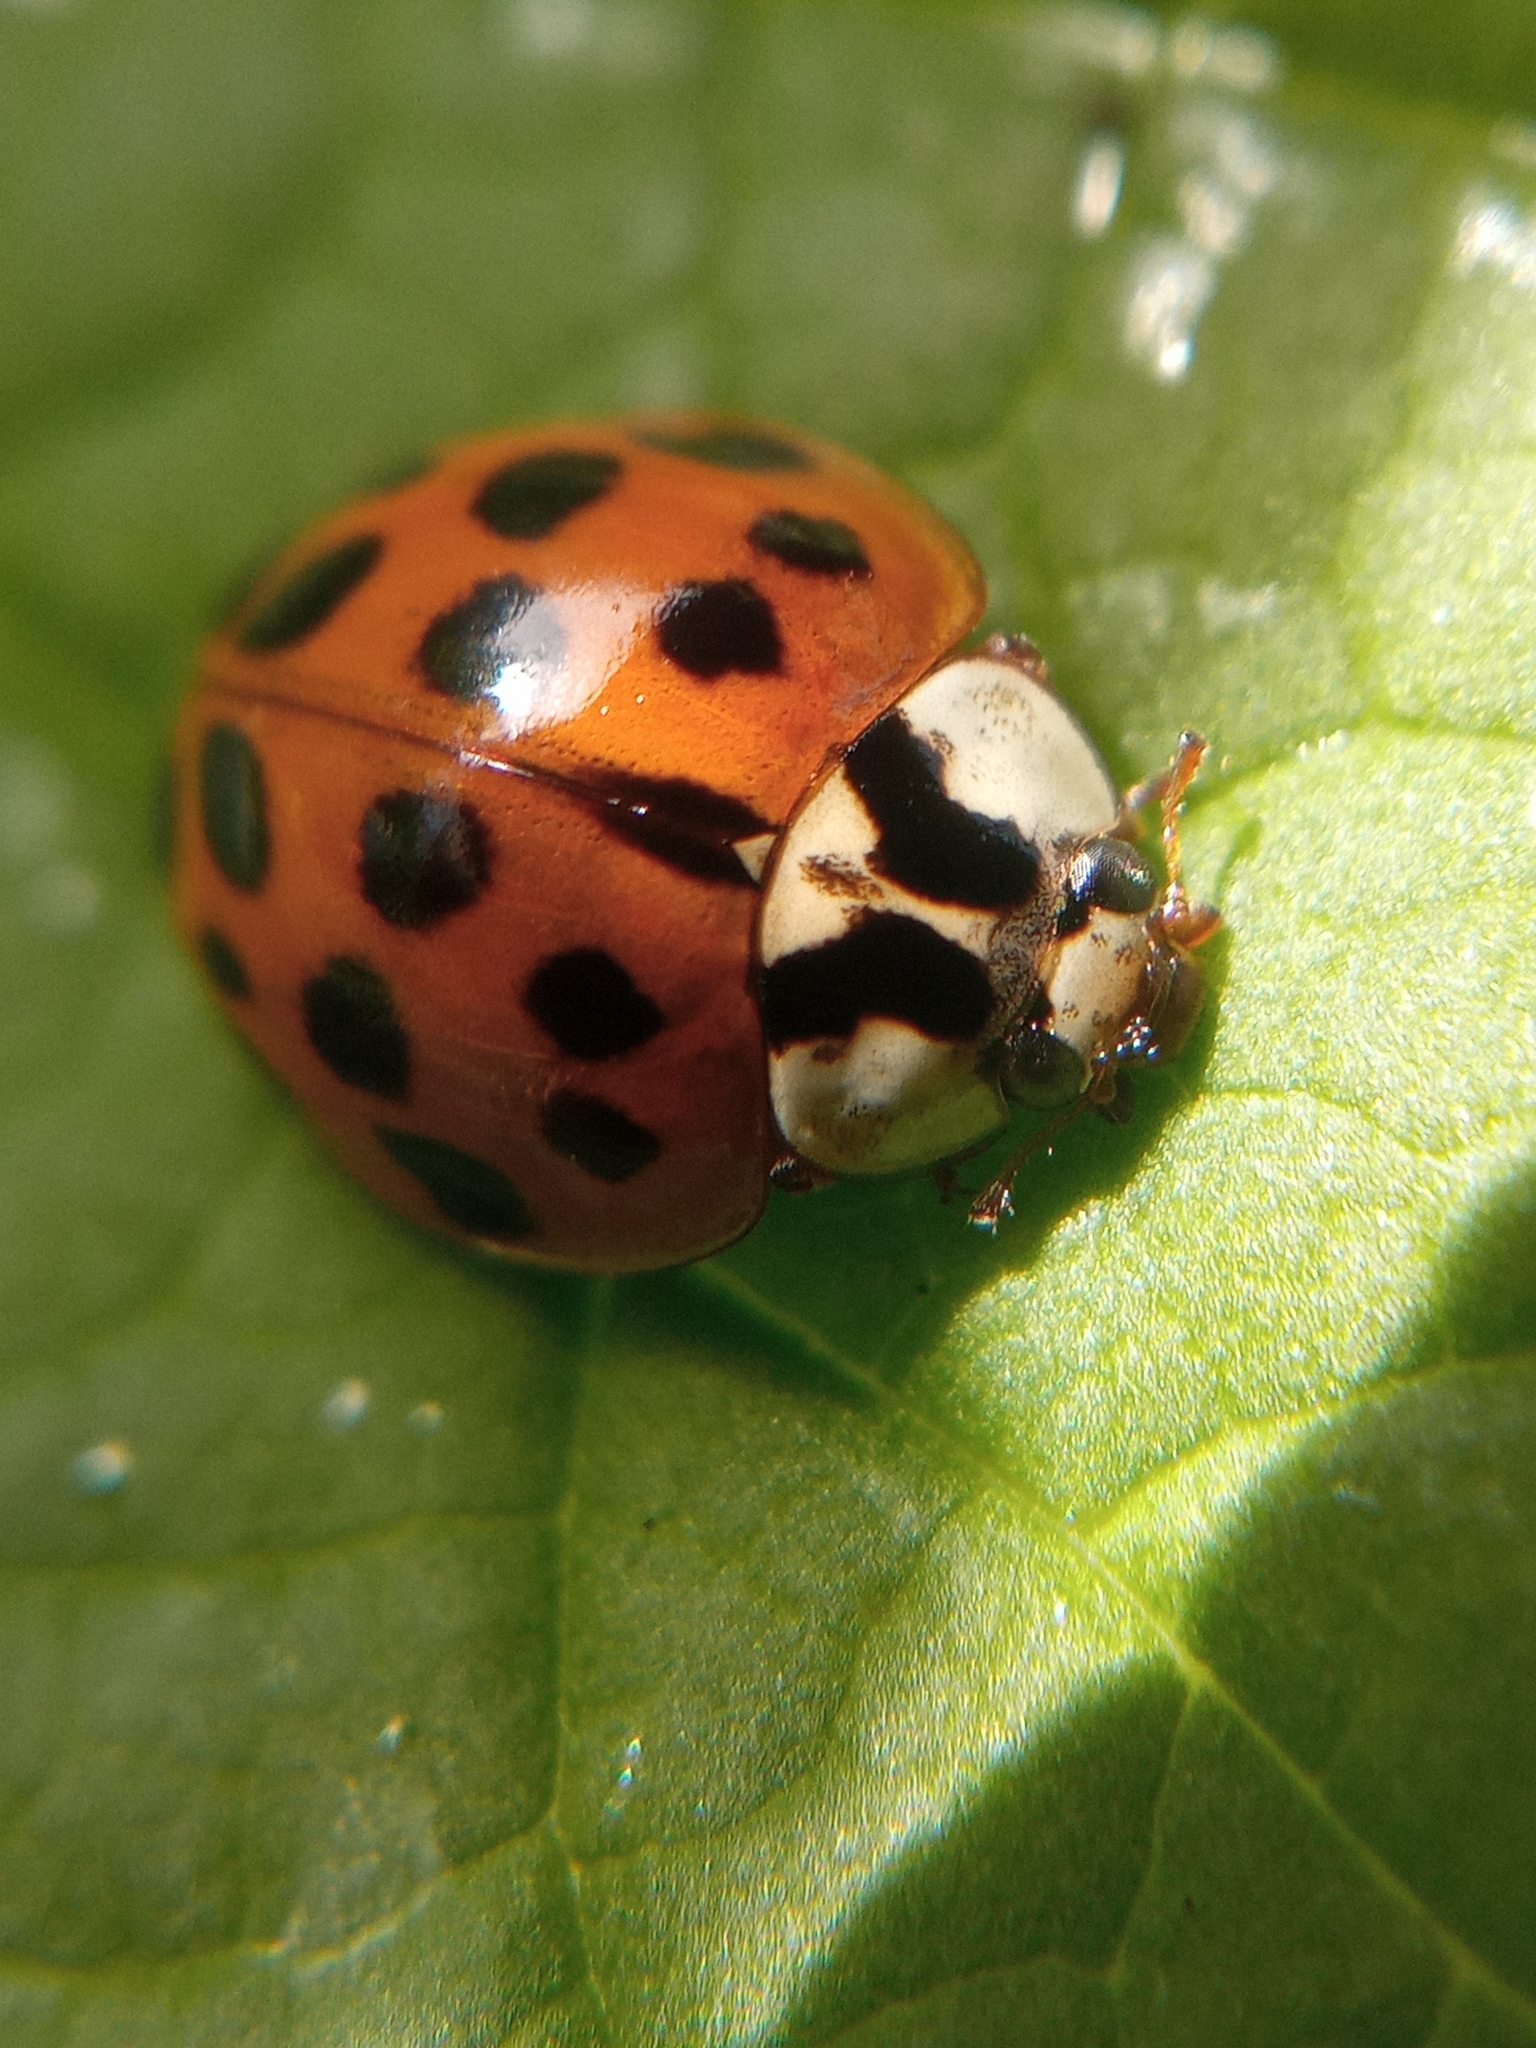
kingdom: Animalia
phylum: Arthropoda
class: Insecta
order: Coleoptera
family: Coccinellidae
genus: Harmonia
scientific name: Harmonia axyridis
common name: Harlequin ladybird
